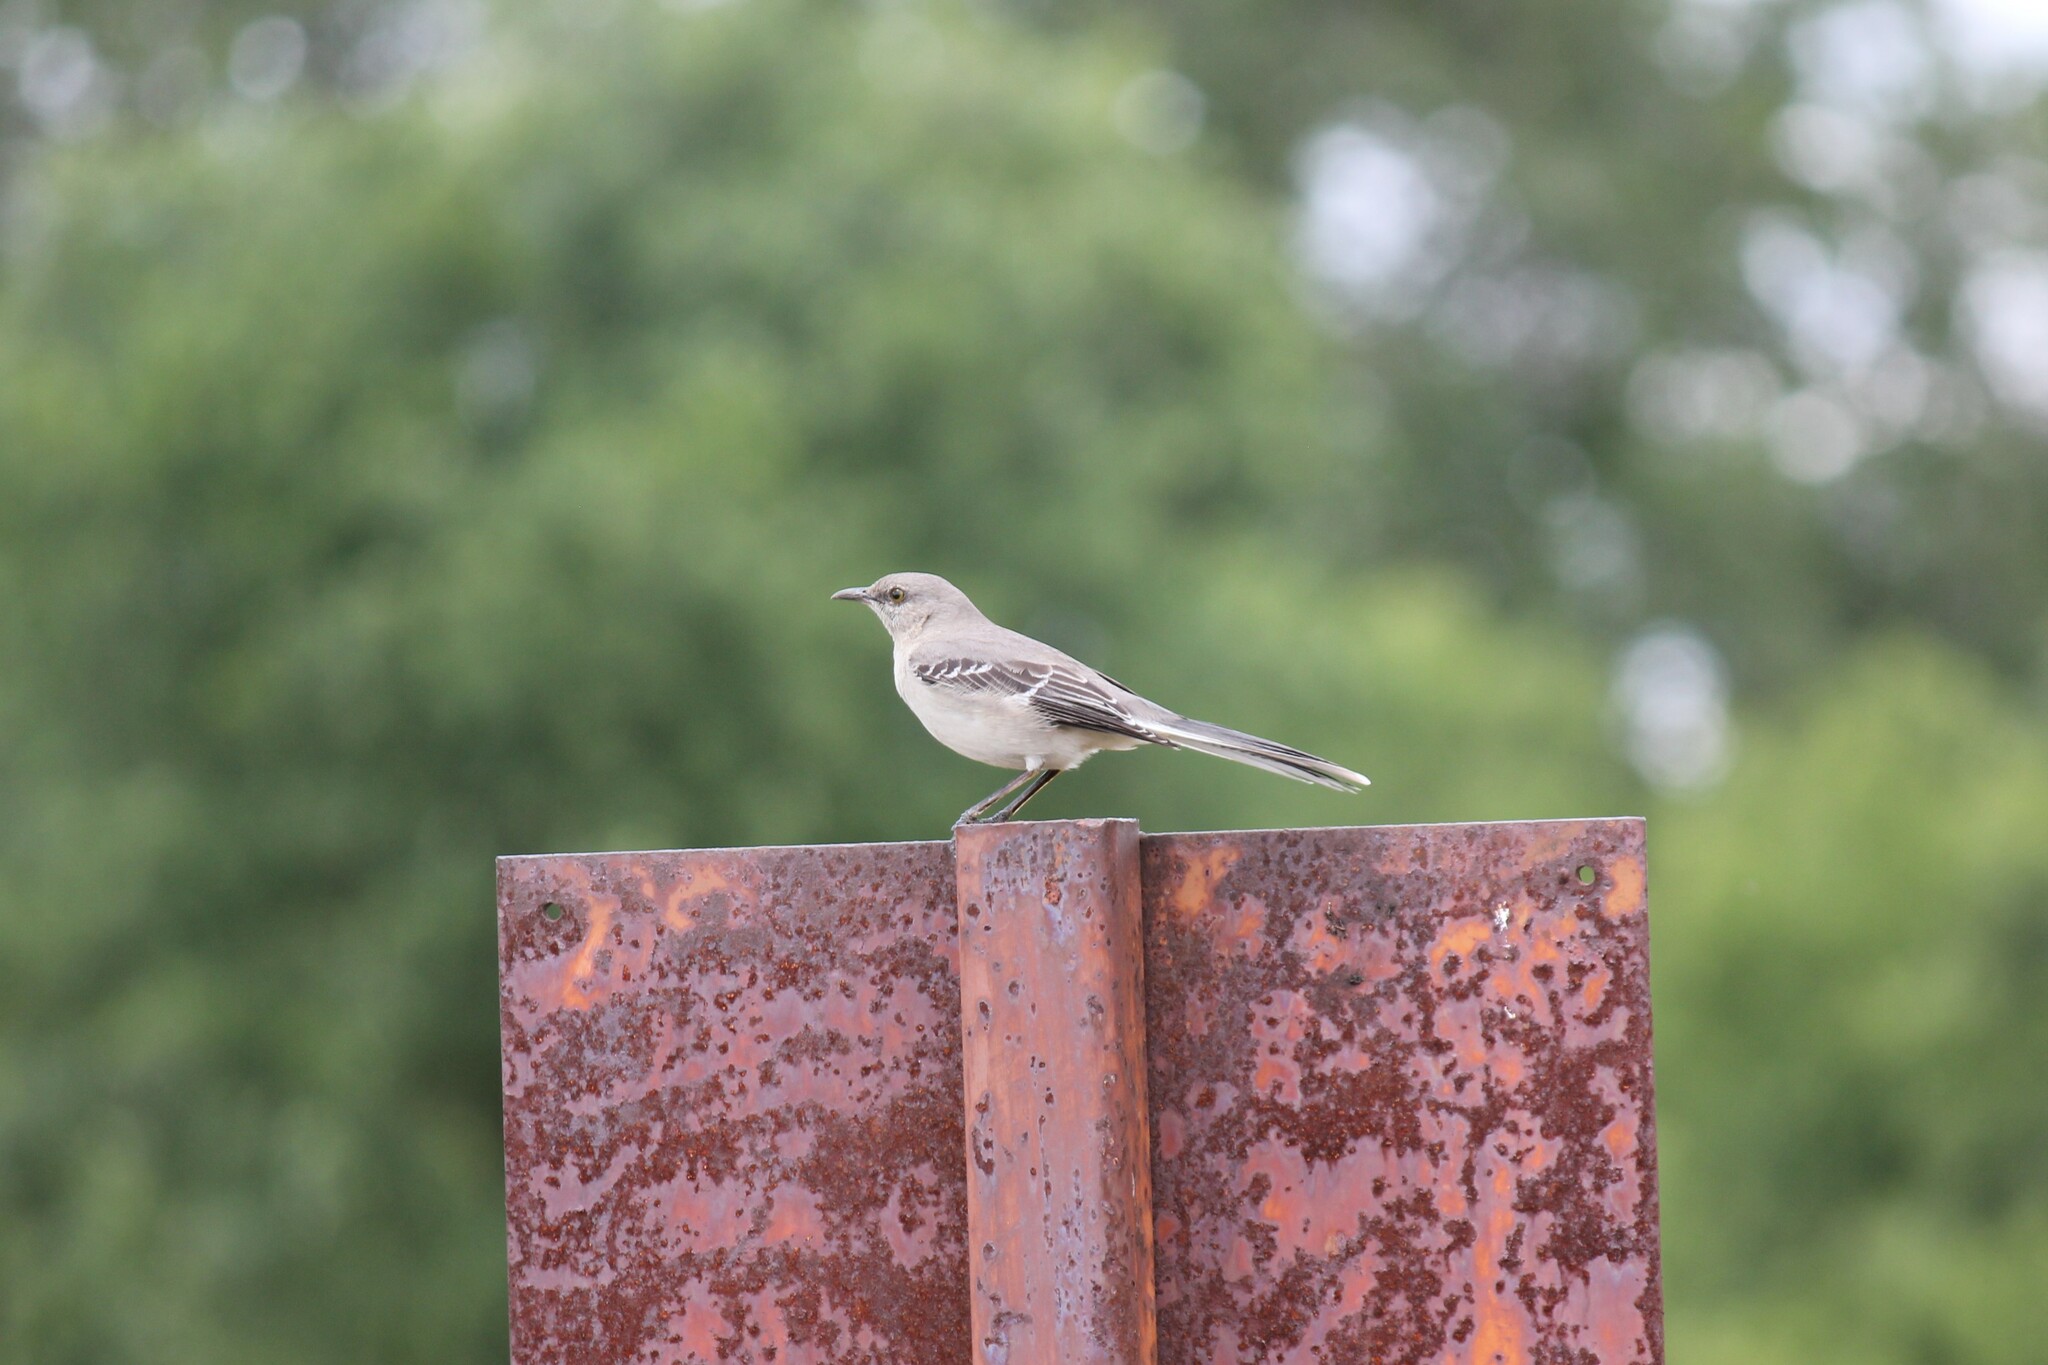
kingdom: Animalia
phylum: Chordata
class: Aves
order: Passeriformes
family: Mimidae
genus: Mimus
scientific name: Mimus polyglottos
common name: Northern mockingbird
